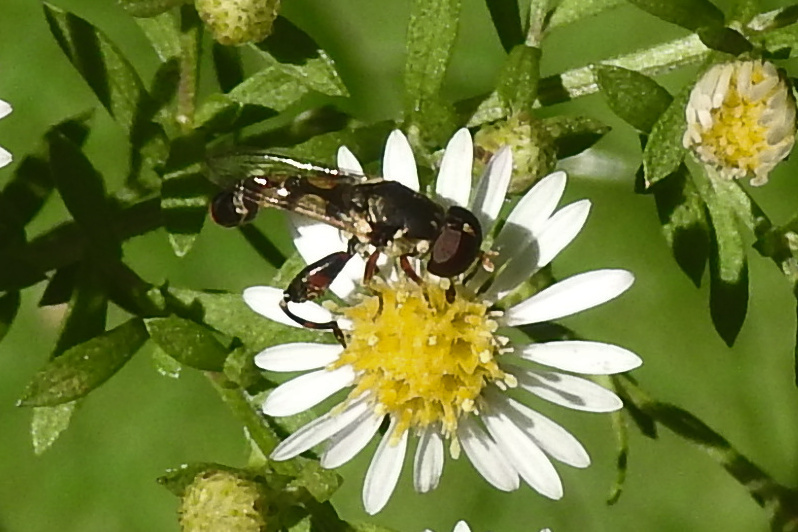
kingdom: Animalia
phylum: Arthropoda
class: Insecta
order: Diptera
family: Syrphidae
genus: Syritta
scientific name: Syritta pipiens
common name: Hover fly
